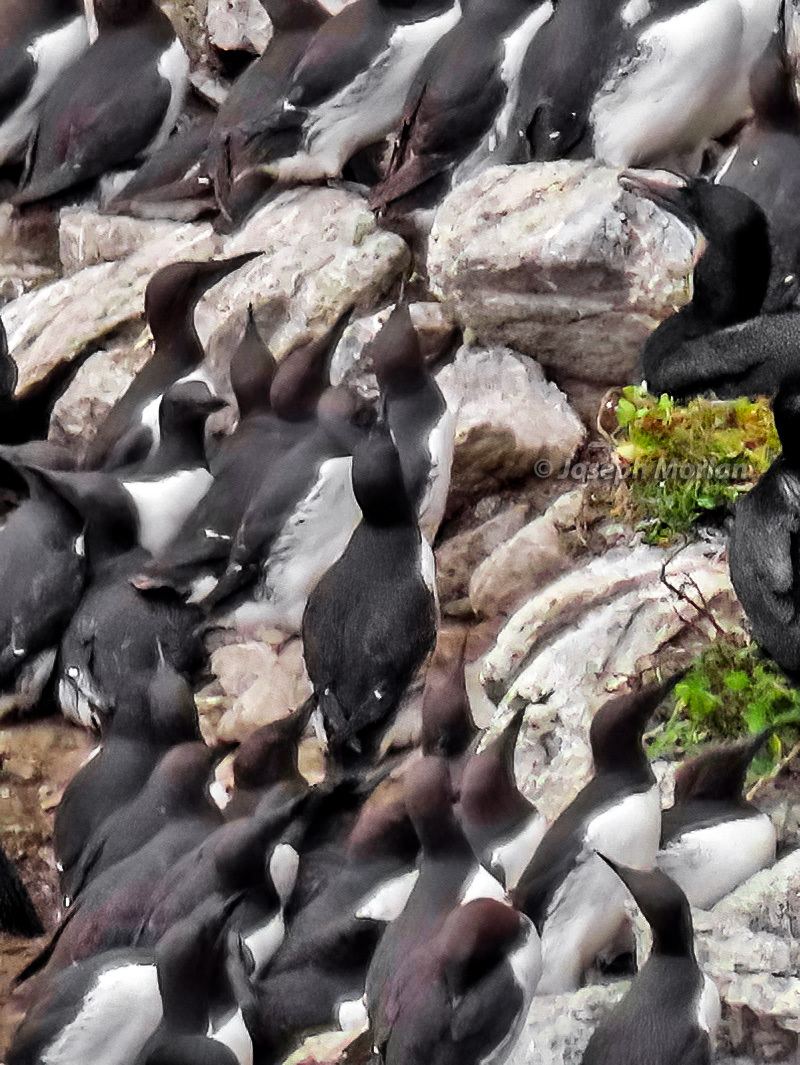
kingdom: Animalia
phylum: Chordata
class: Aves
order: Charadriiformes
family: Alcidae
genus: Uria
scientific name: Uria aalge
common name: Common murre
